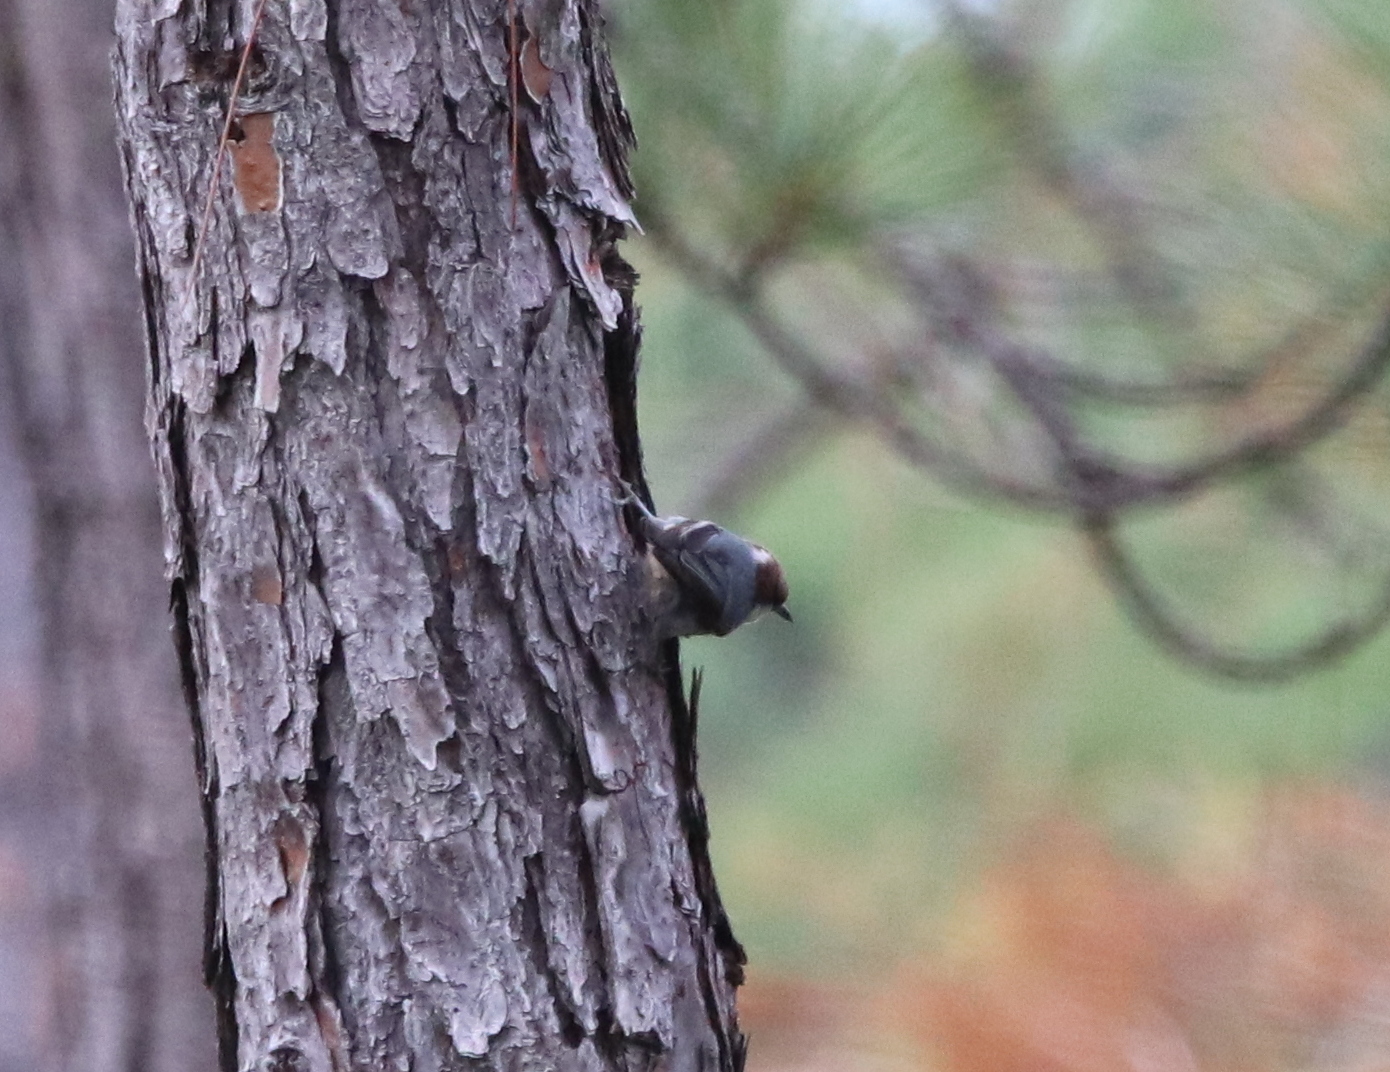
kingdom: Animalia
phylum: Chordata
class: Aves
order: Passeriformes
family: Sittidae
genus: Sitta
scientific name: Sitta pusilla
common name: Brown-headed nuthatch
